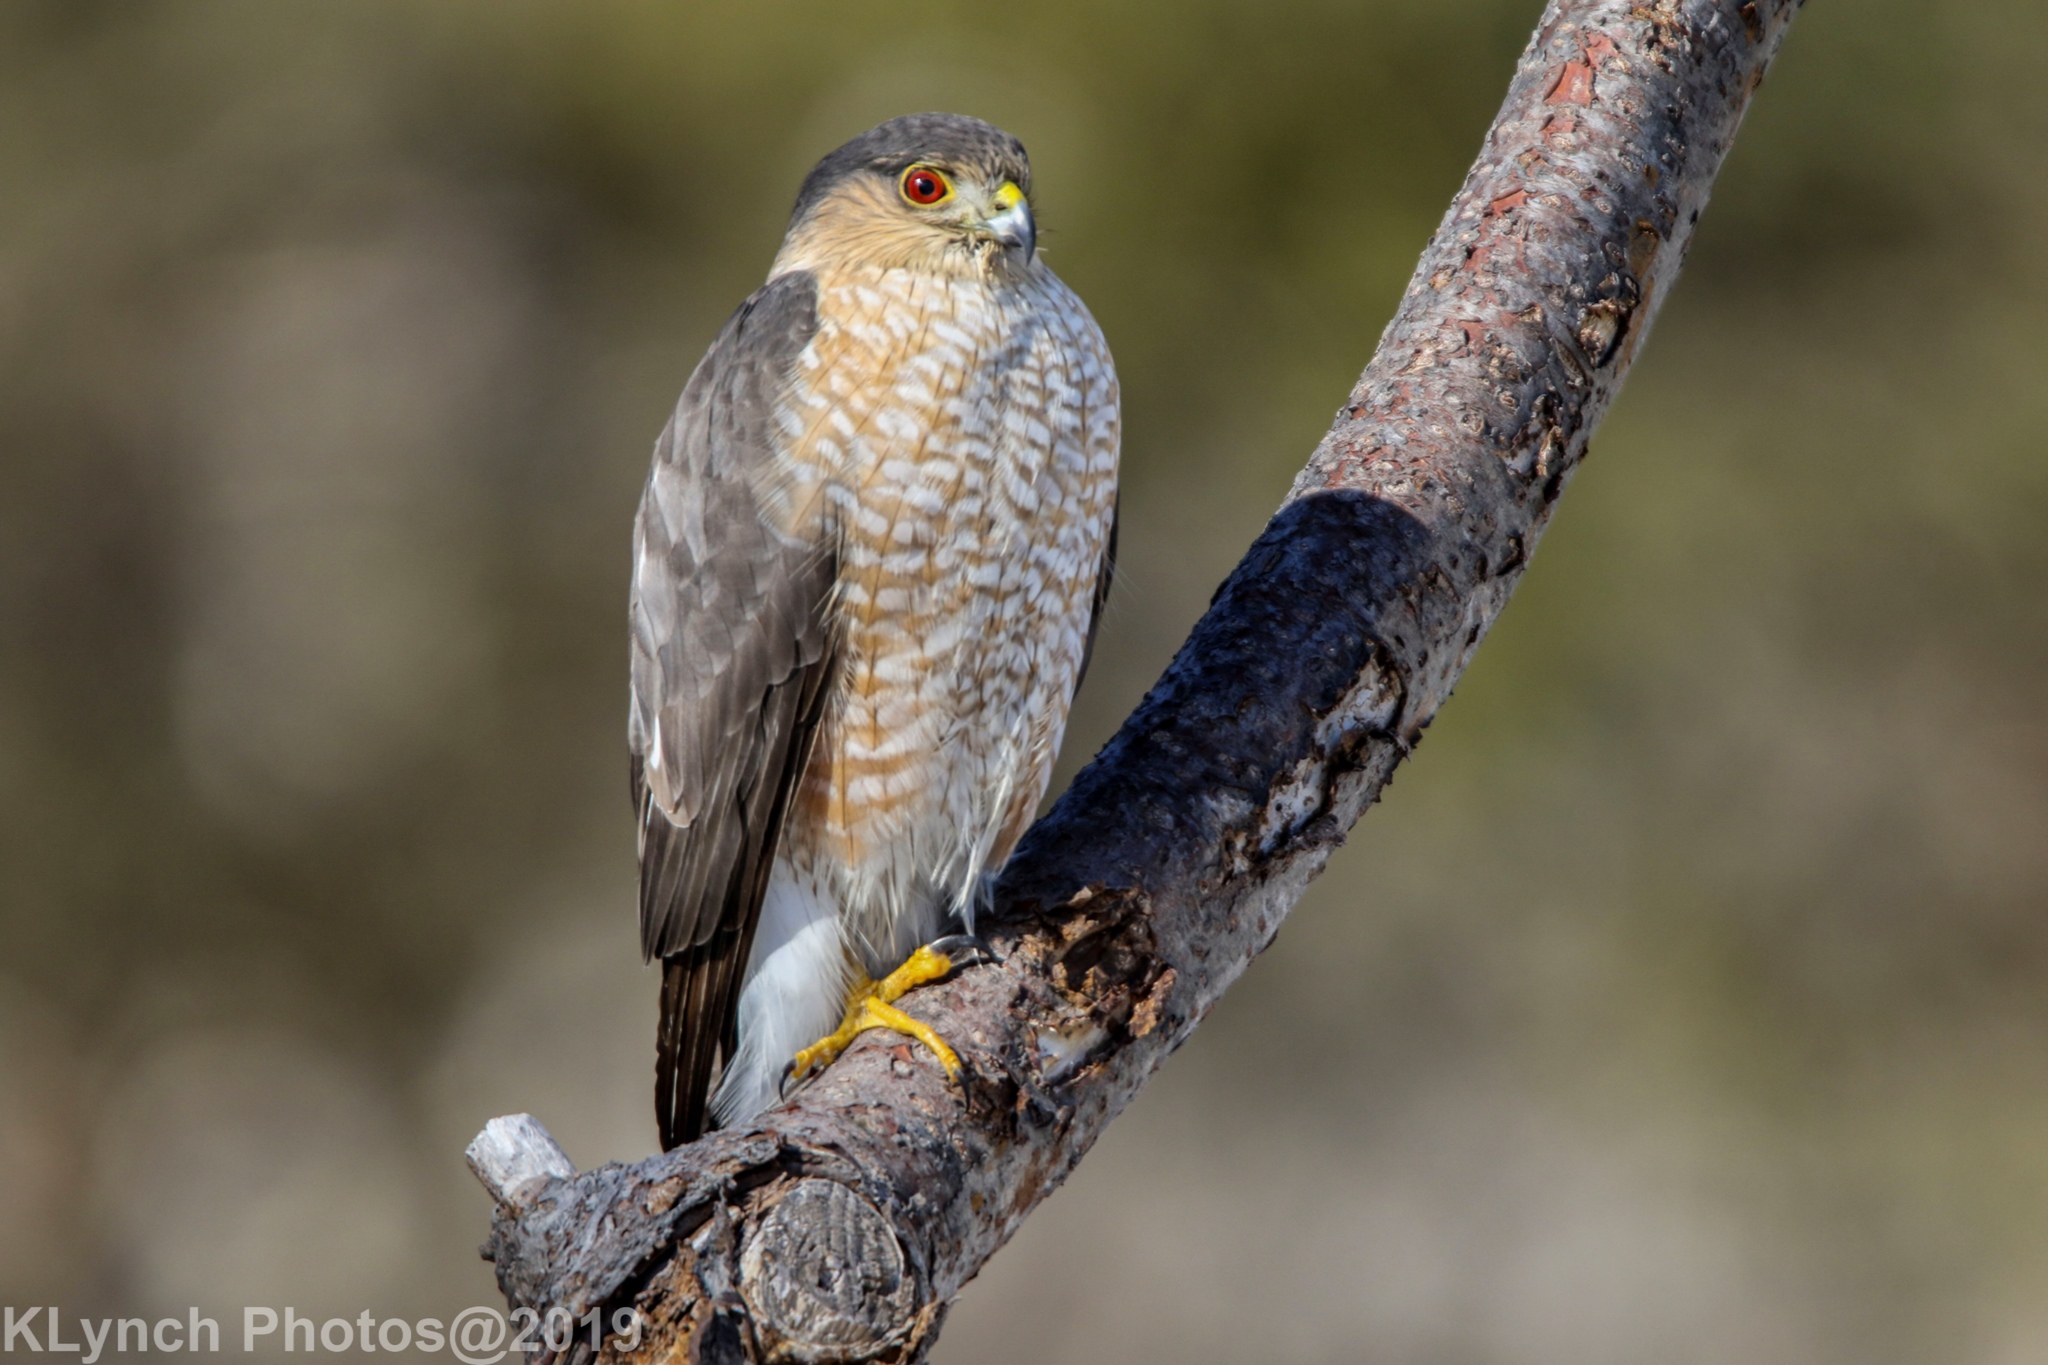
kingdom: Animalia
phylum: Chordata
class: Aves
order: Accipitriformes
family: Accipitridae
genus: Accipiter
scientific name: Accipiter striatus
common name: Sharp-shinned hawk
